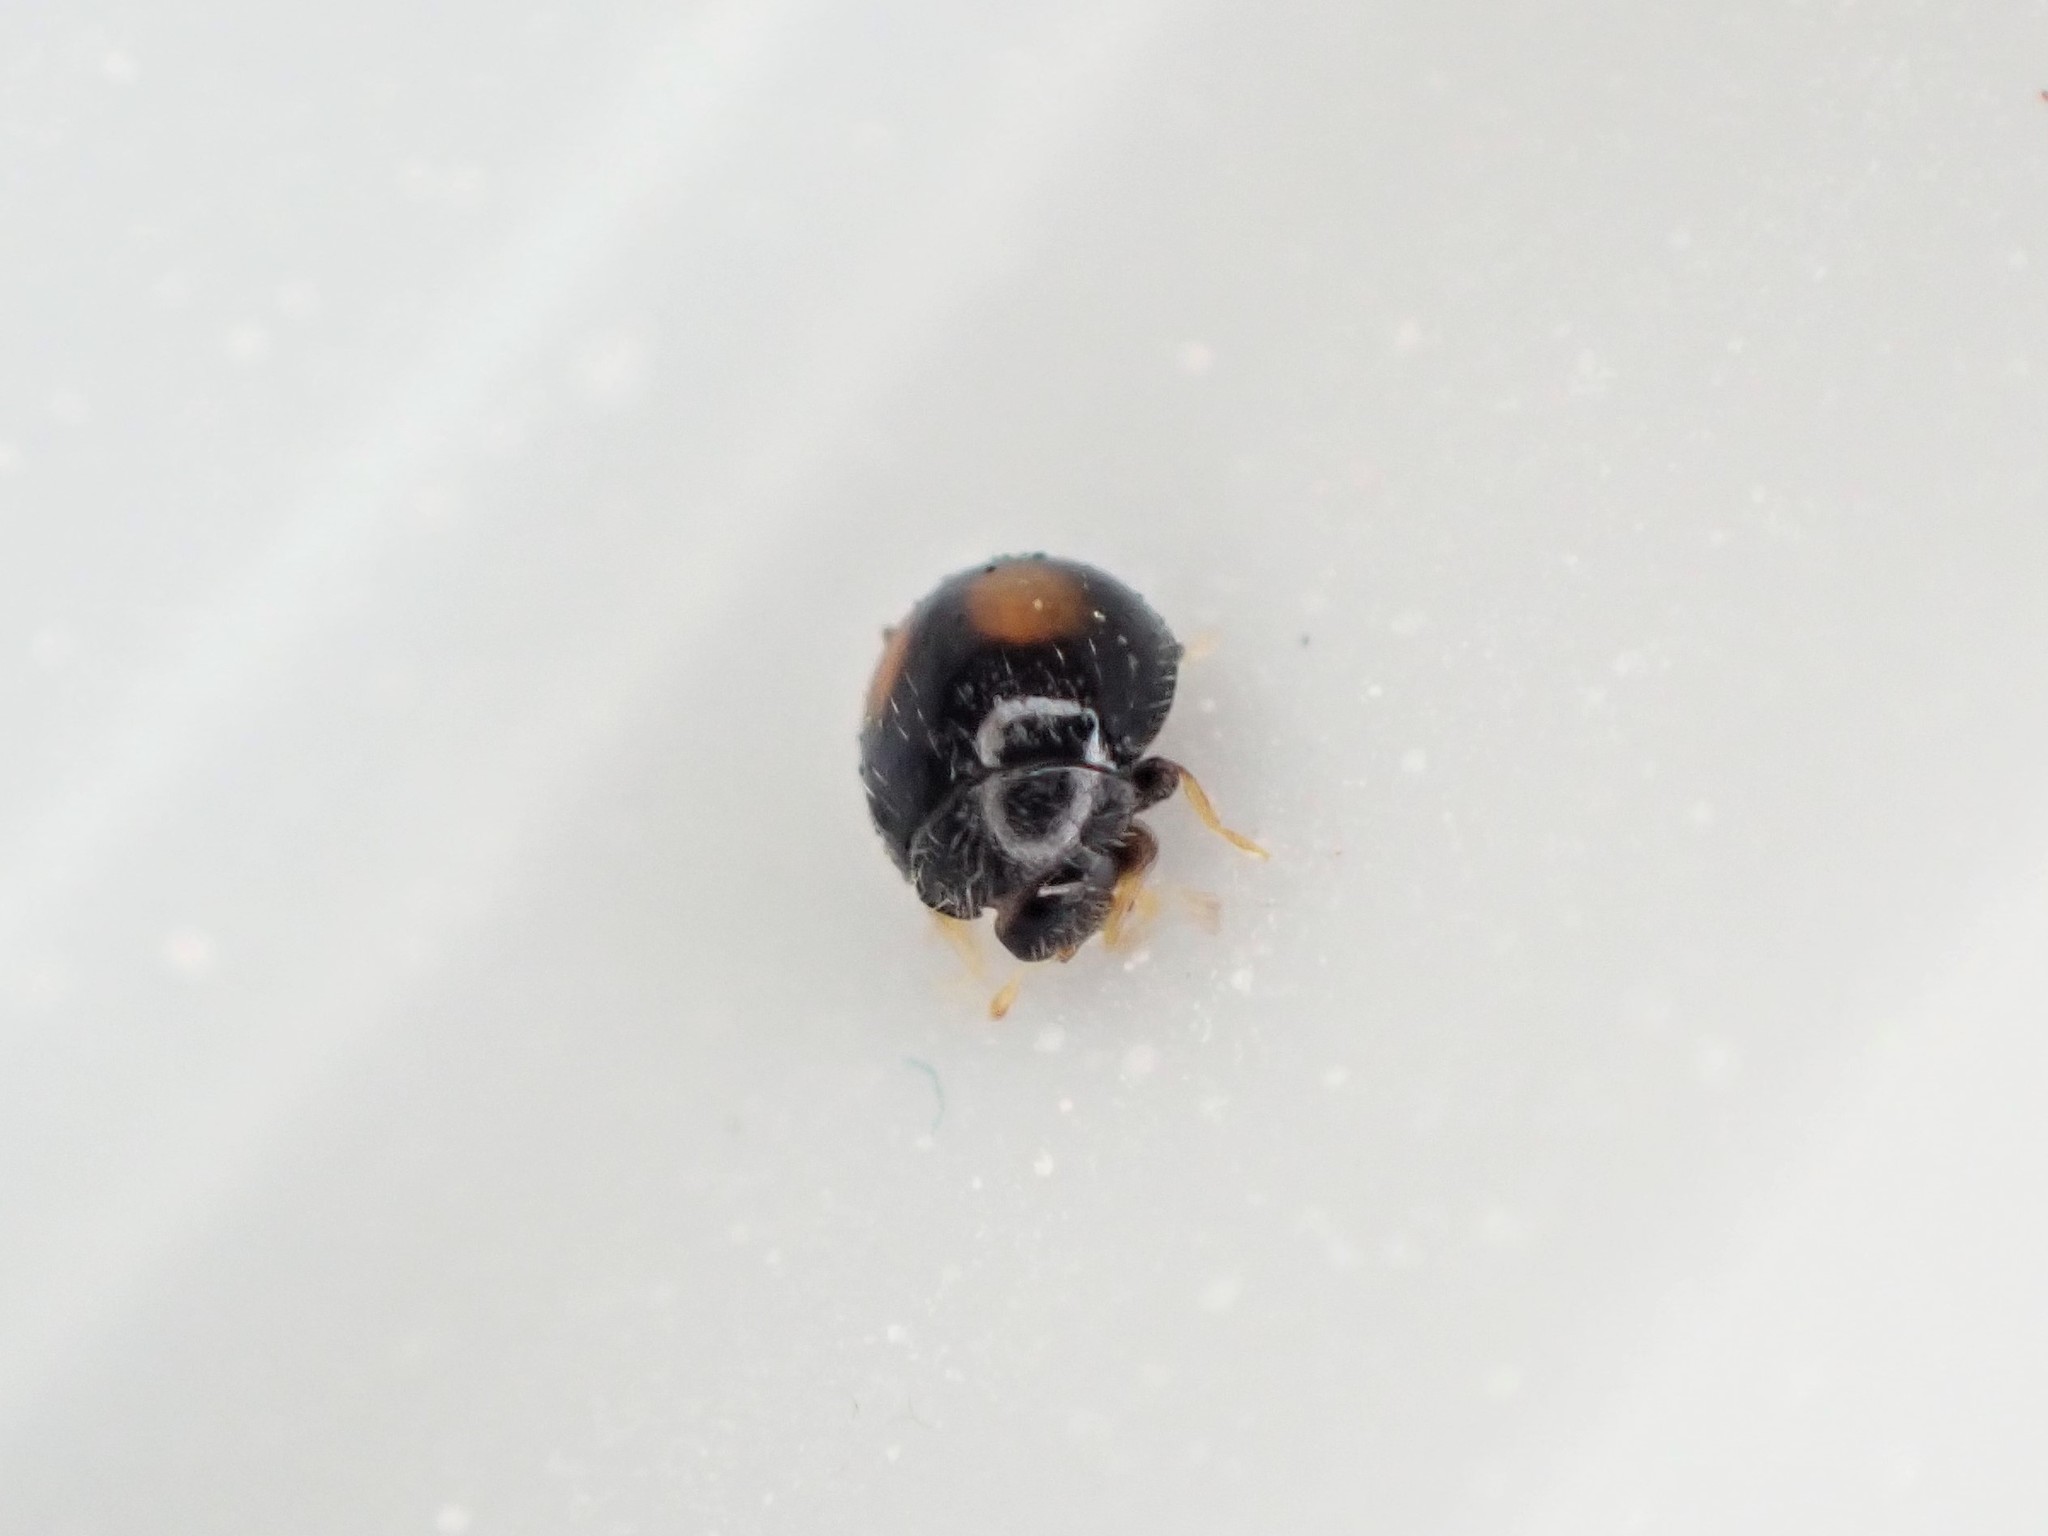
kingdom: Animalia
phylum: Arthropoda
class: Insecta
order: Coleoptera
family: Coccinellidae
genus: Serangium
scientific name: Serangium maculigerum
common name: Lady beetle
